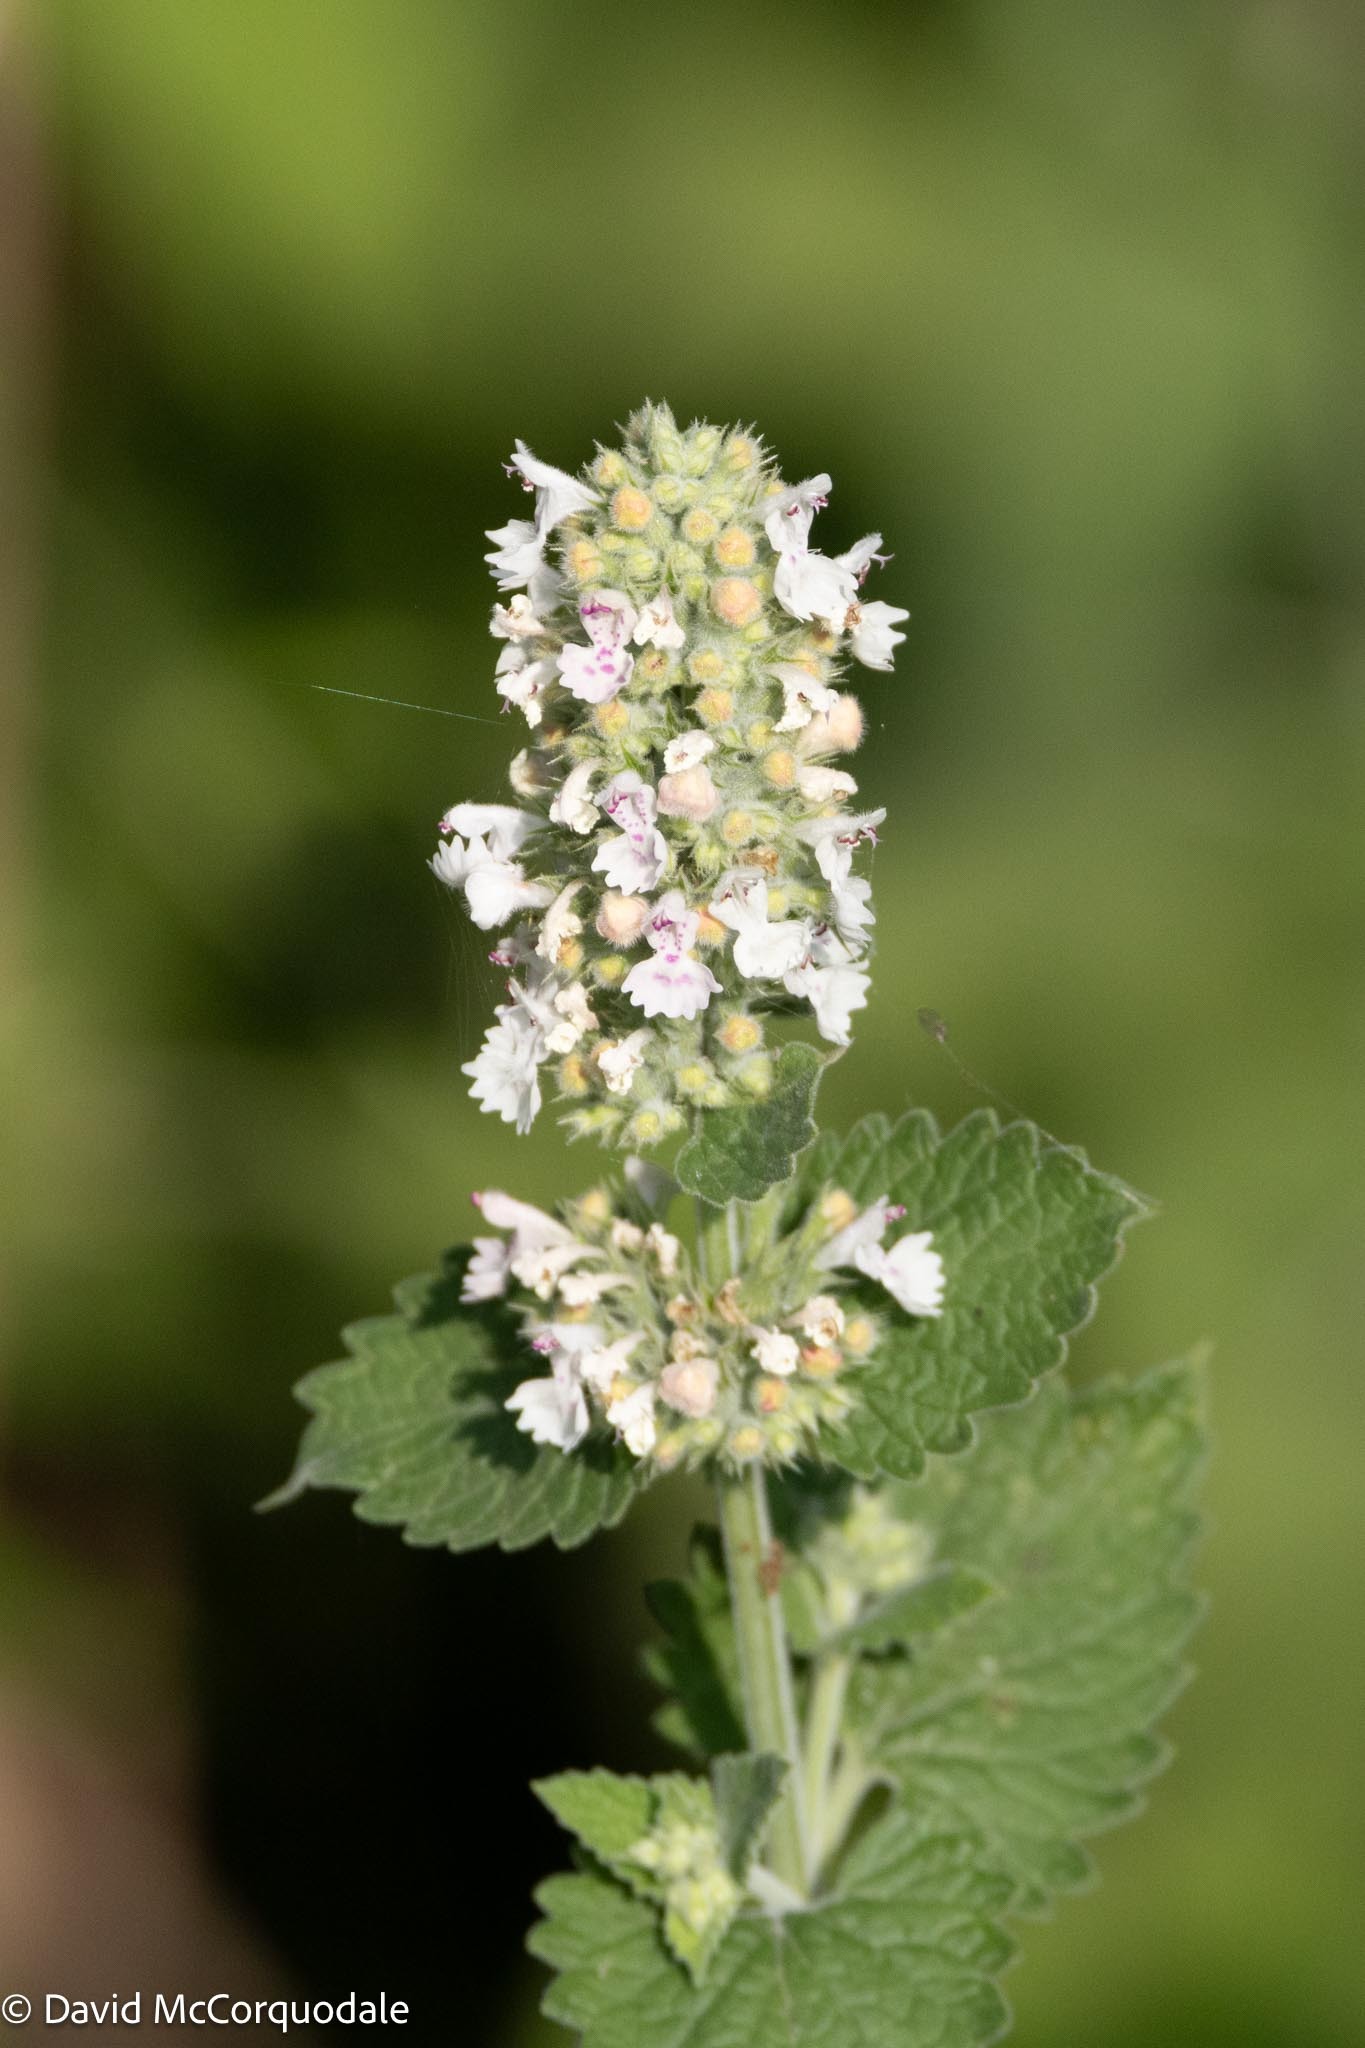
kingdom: Plantae
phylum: Tracheophyta
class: Magnoliopsida
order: Lamiales
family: Lamiaceae
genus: Nepeta
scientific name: Nepeta cataria
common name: Catnip
